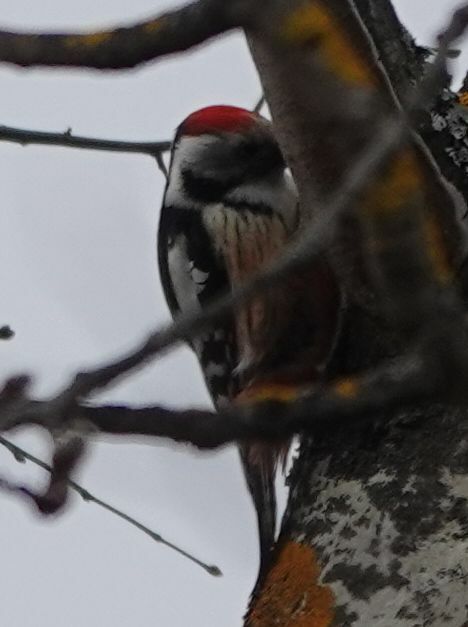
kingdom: Animalia
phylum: Chordata
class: Aves
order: Piciformes
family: Picidae
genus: Dendrocoptes
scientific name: Dendrocoptes medius
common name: Middle spotted woodpecker
